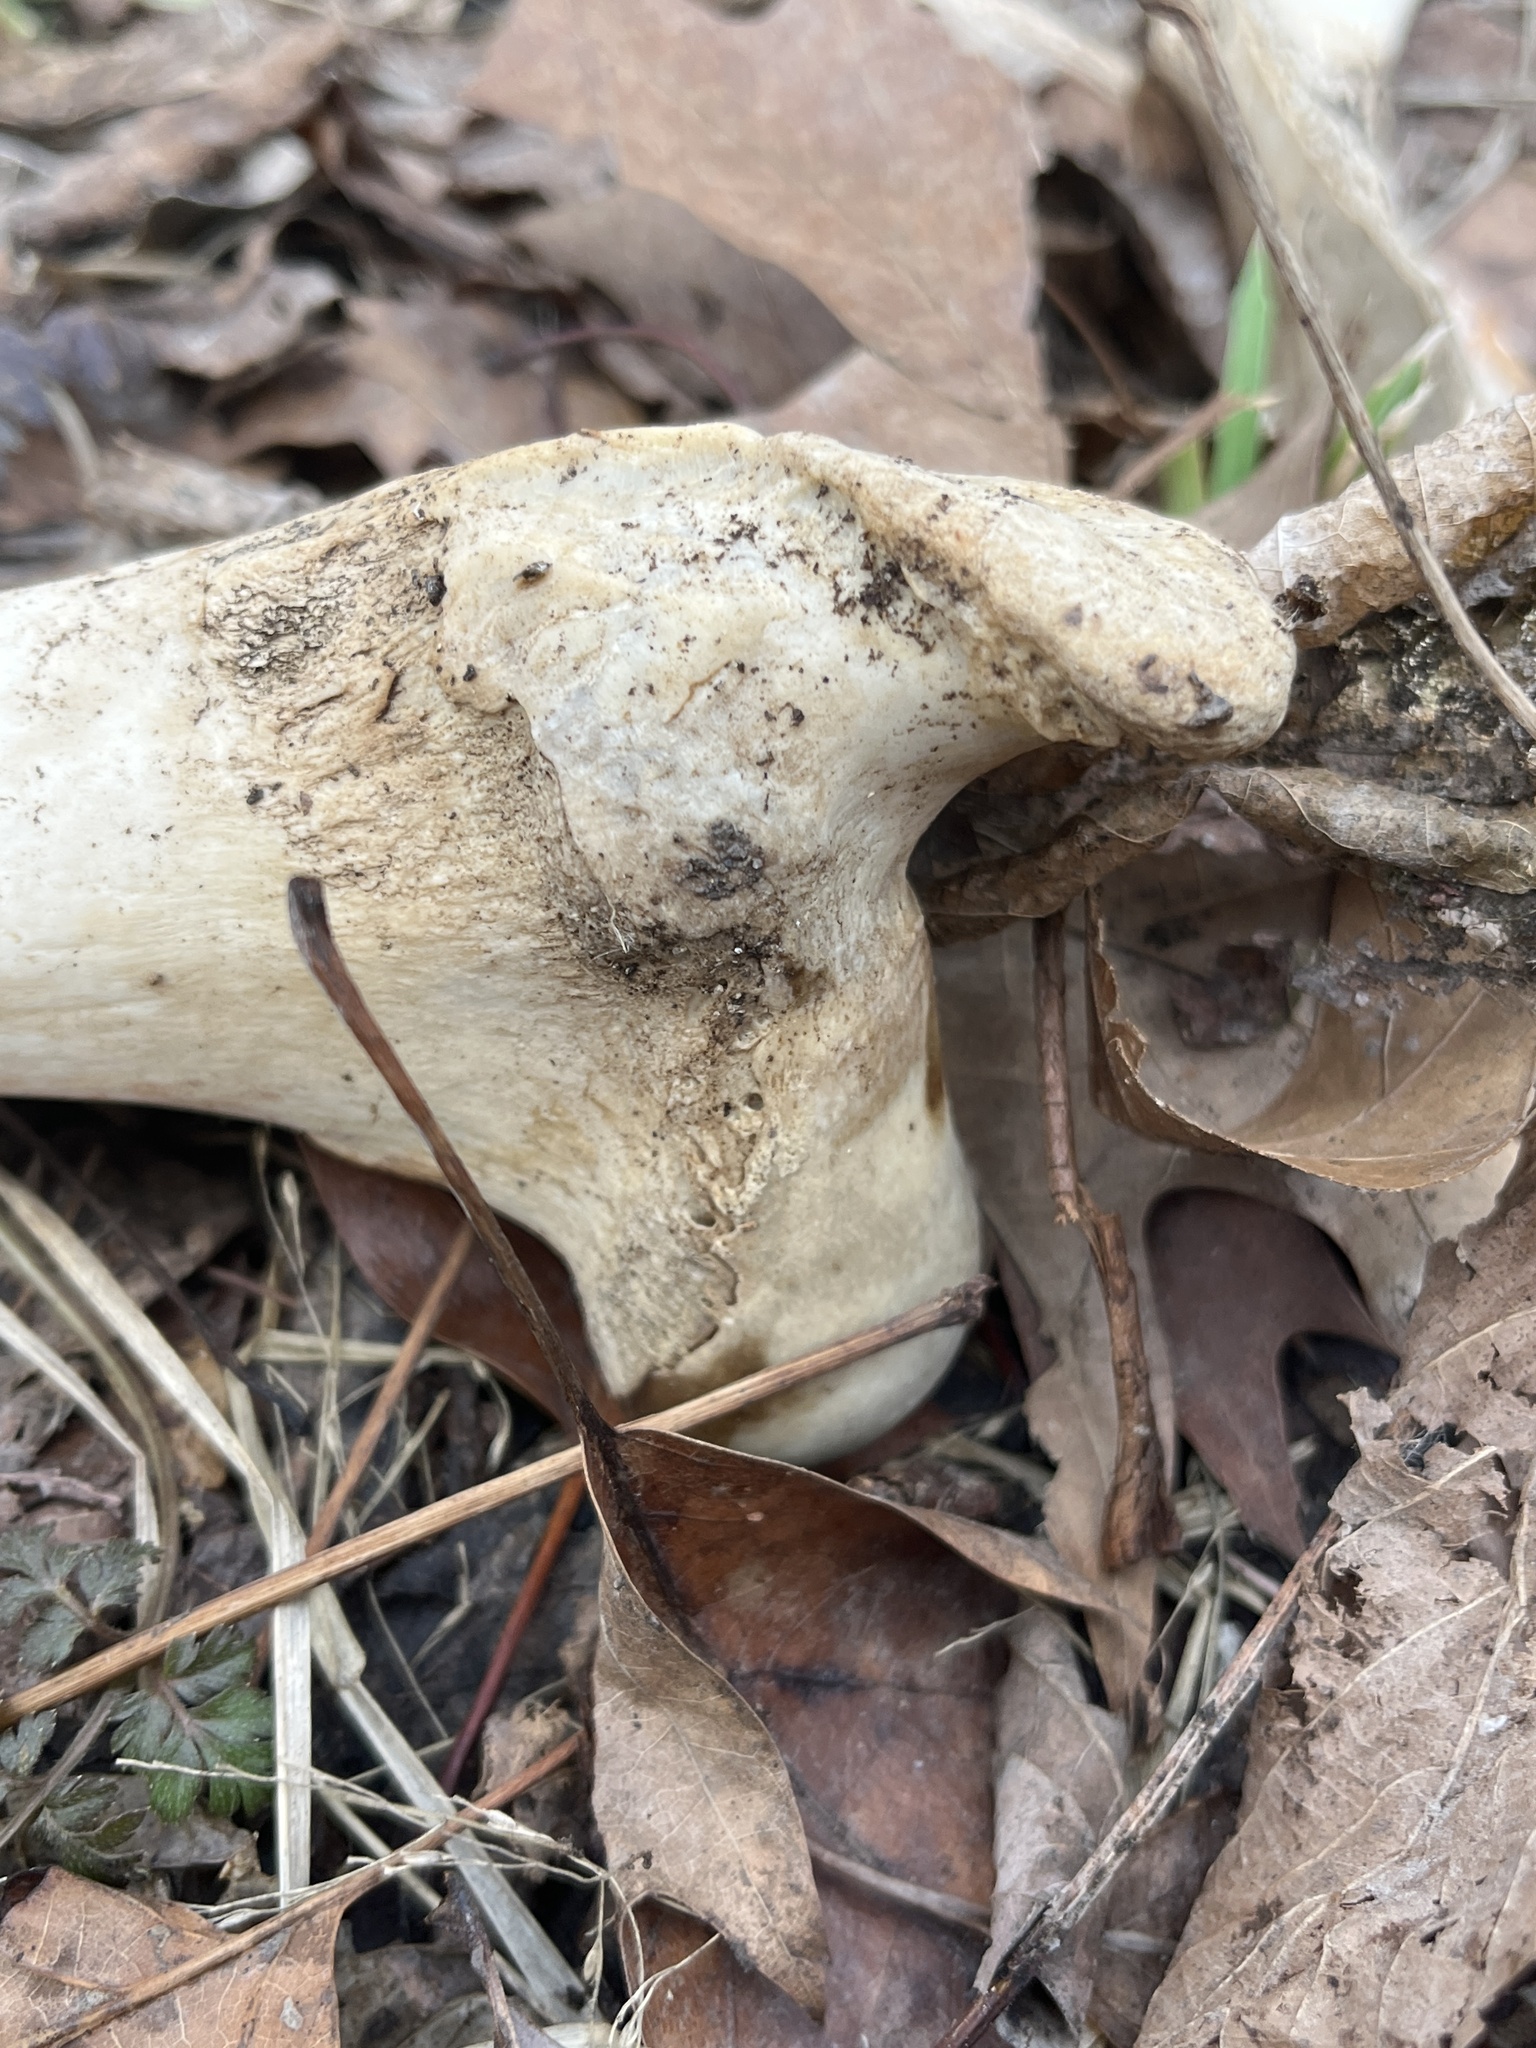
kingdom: Animalia
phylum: Chordata
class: Mammalia
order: Artiodactyla
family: Cervidae
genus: Odocoileus
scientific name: Odocoileus virginianus
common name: White-tailed deer
